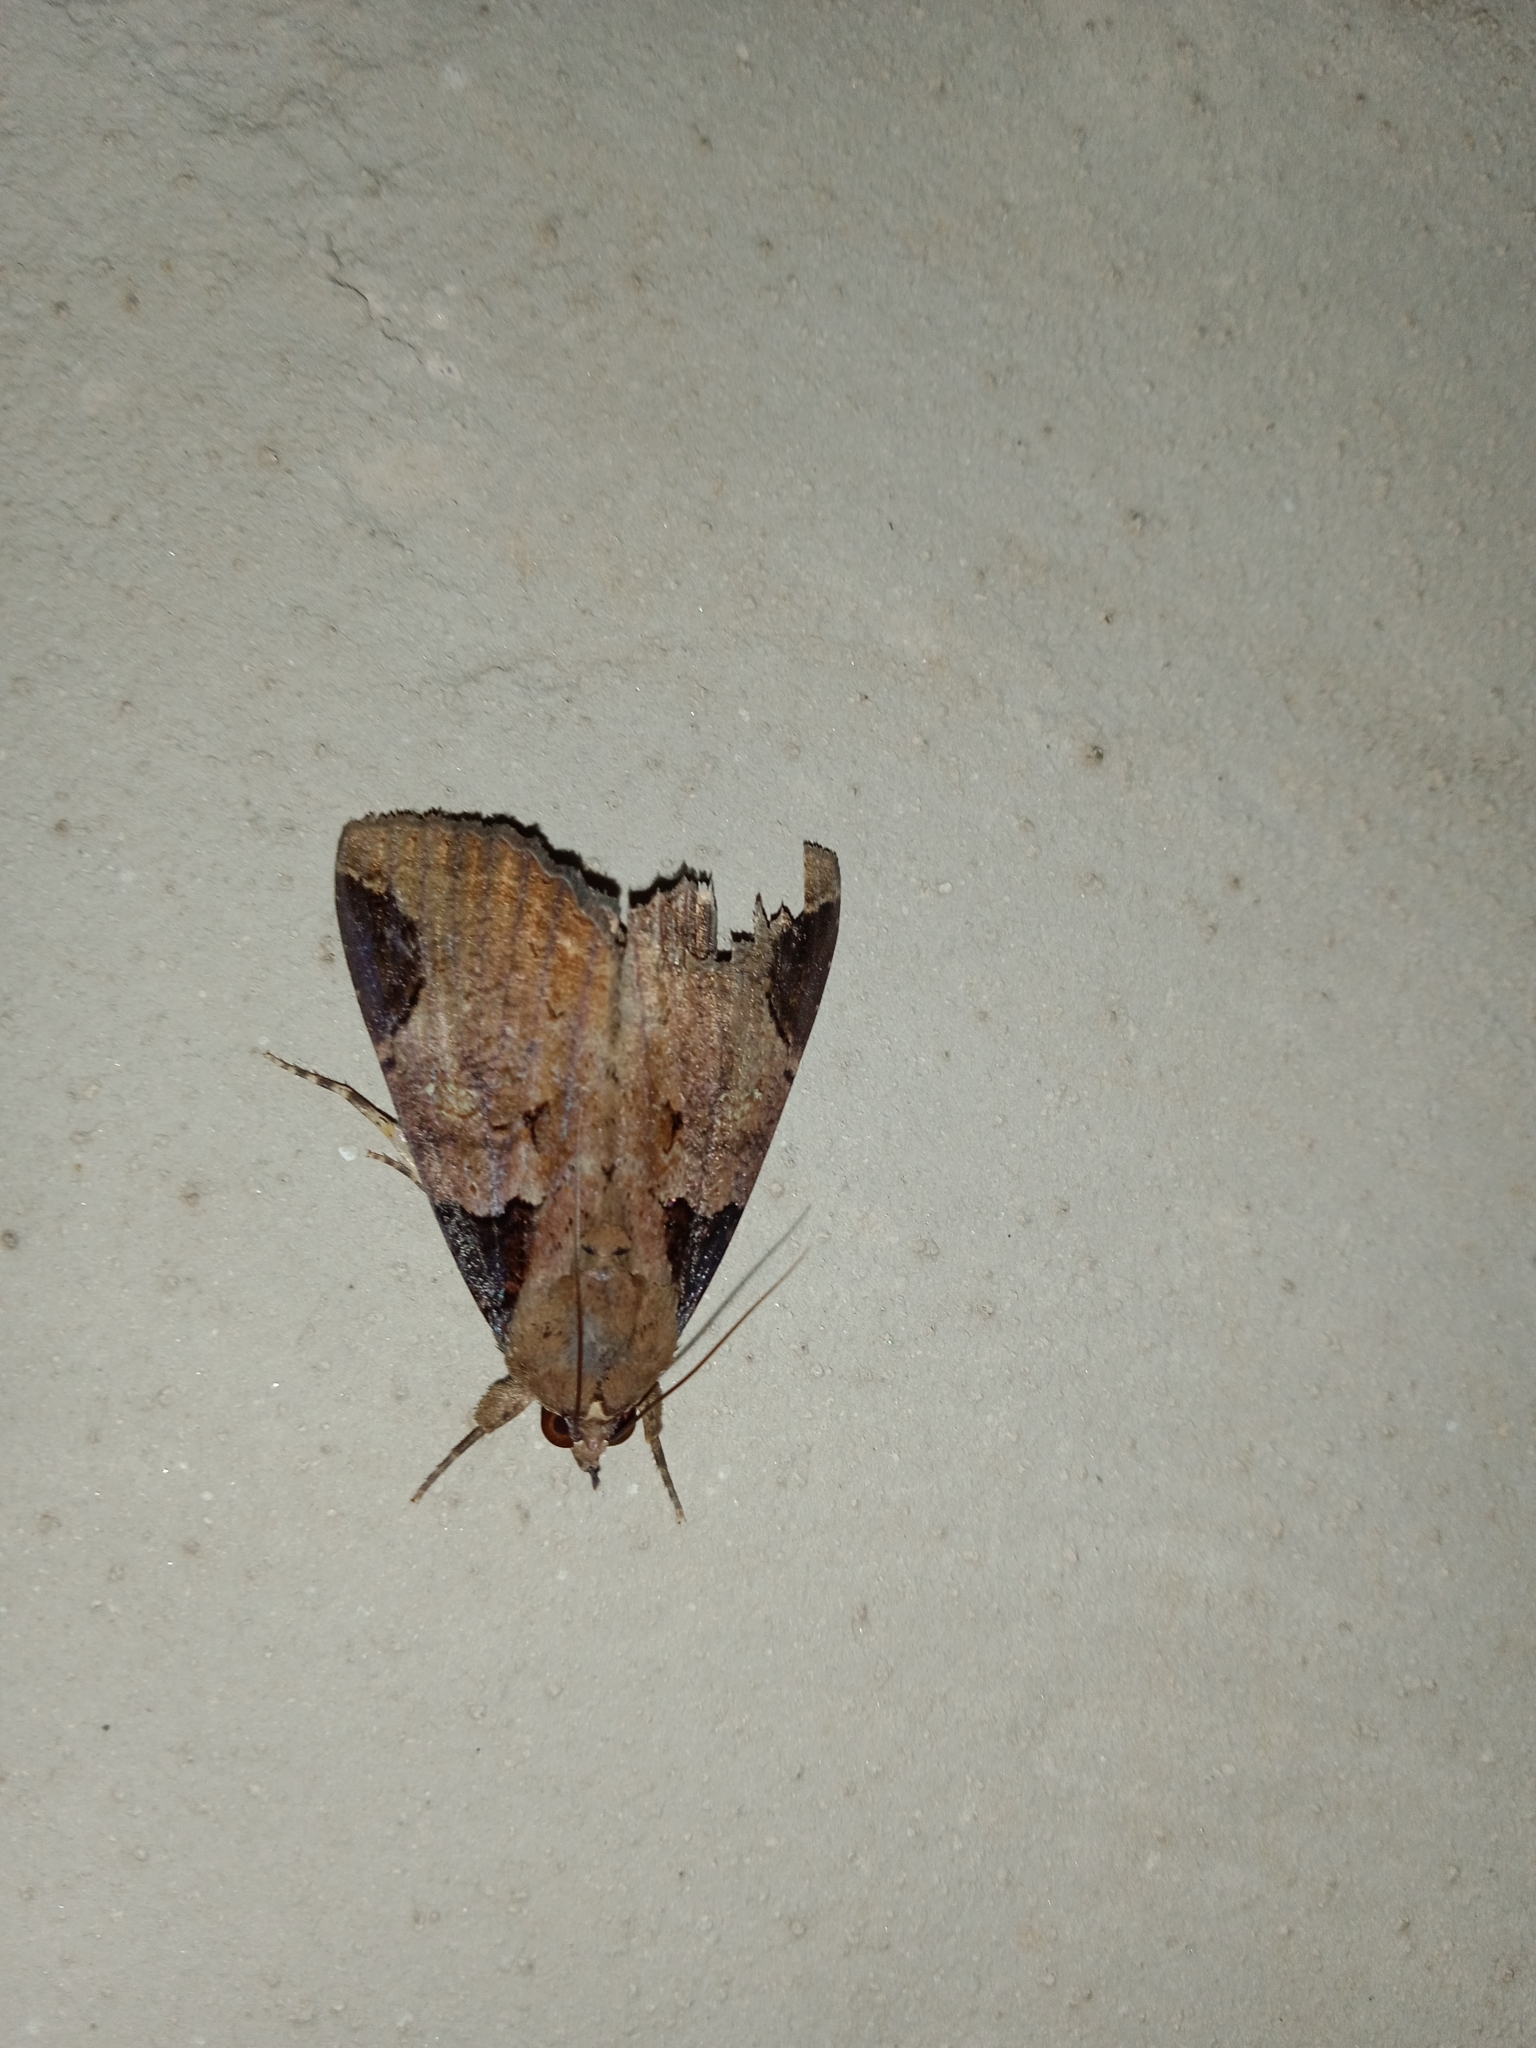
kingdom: Animalia
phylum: Arthropoda
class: Insecta
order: Lepidoptera
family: Erebidae
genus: Ercheia
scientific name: Ercheia cyllaria
